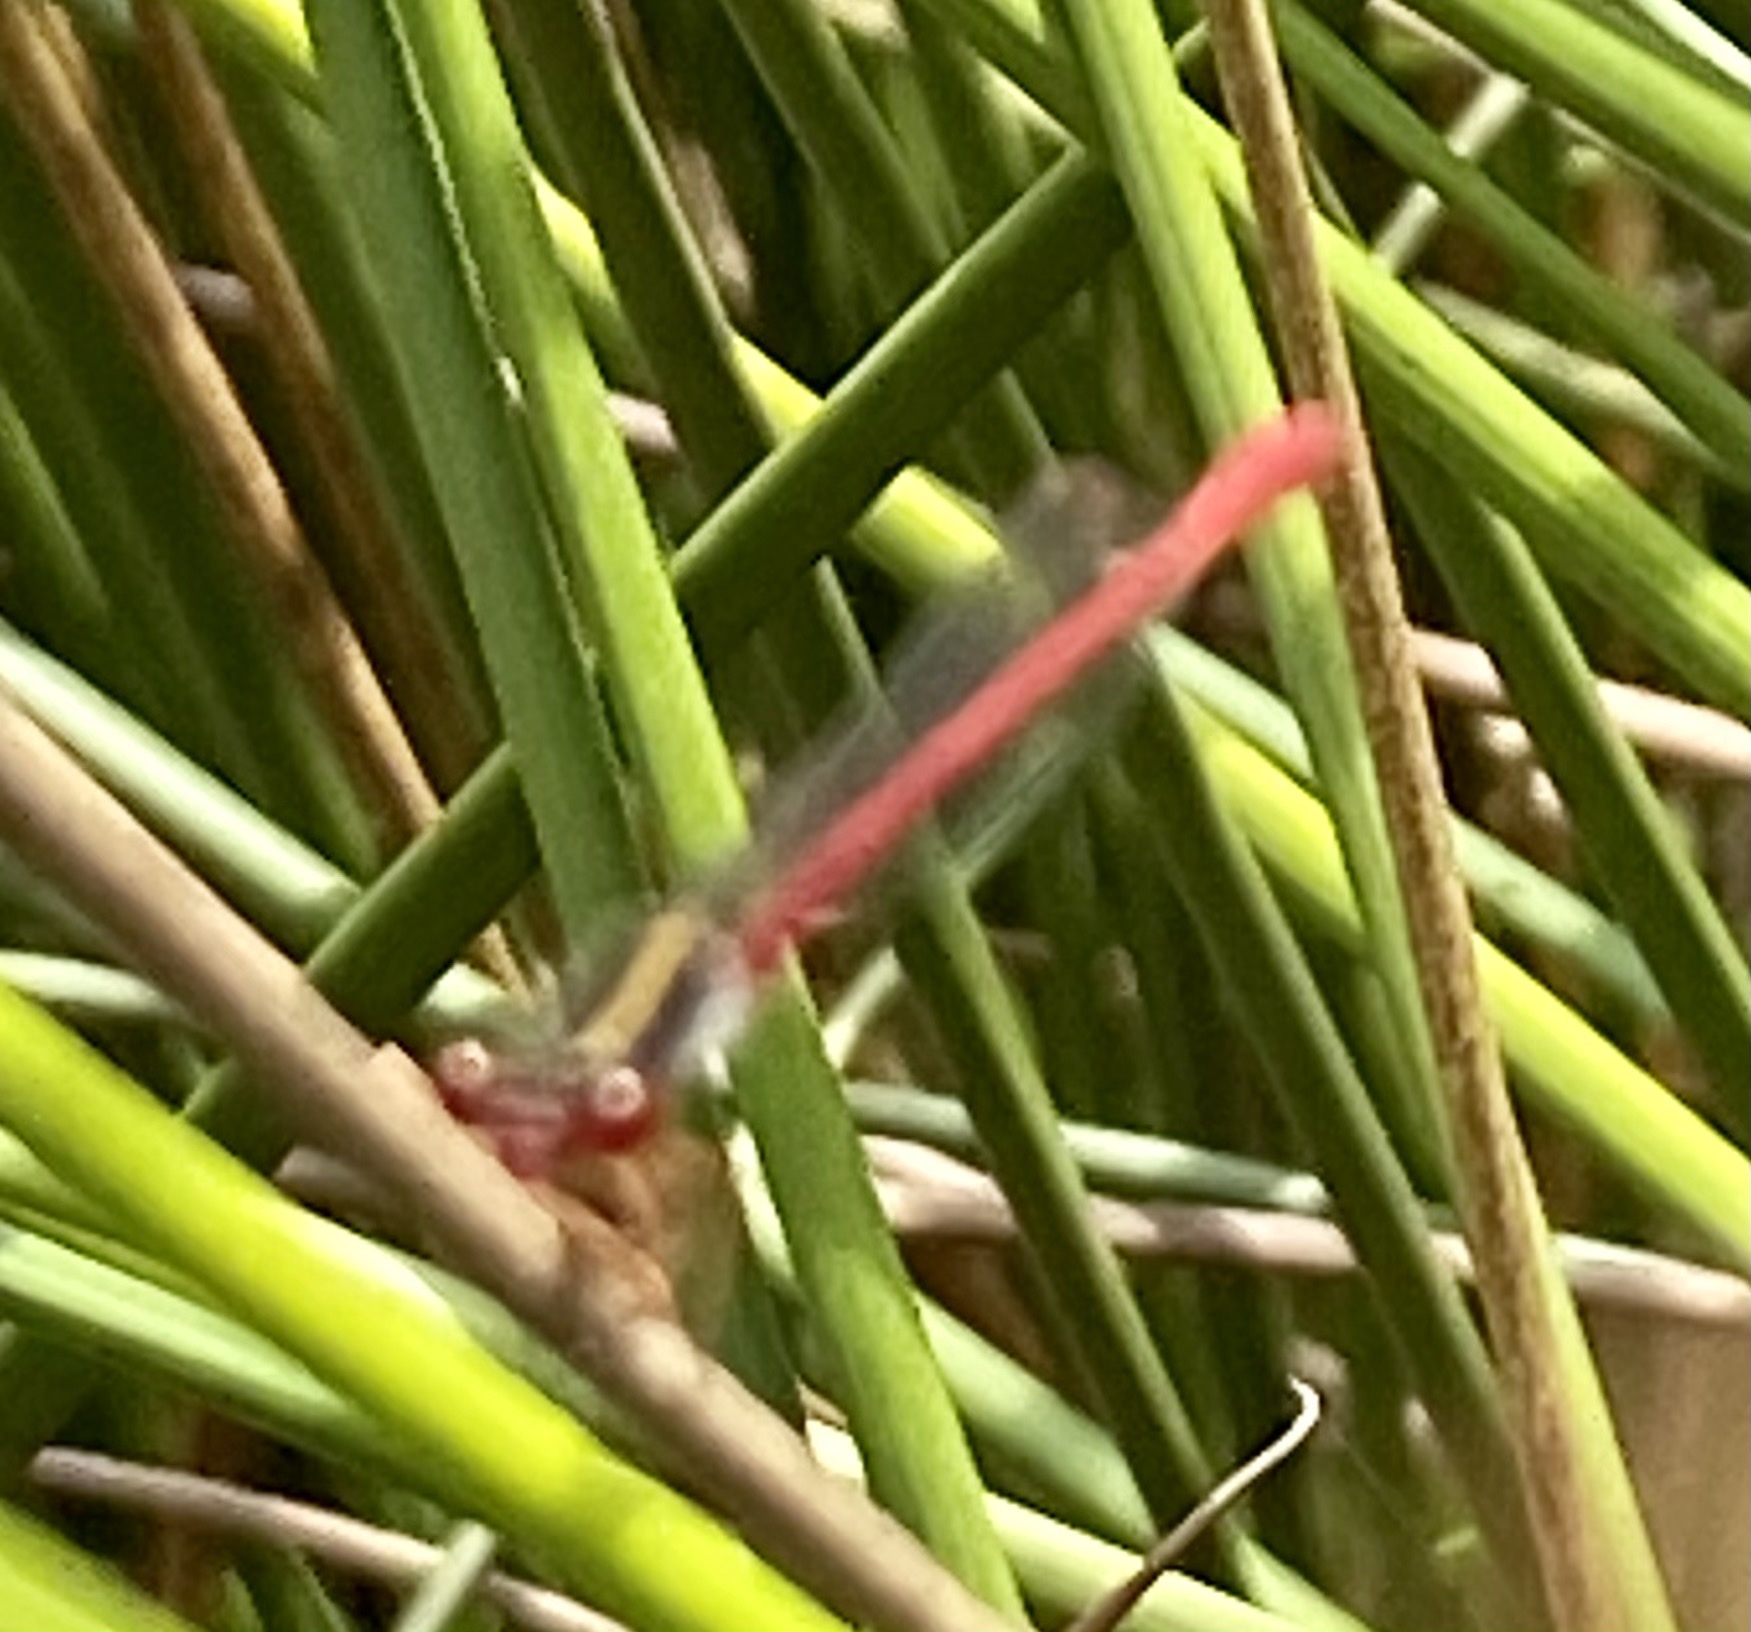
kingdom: Animalia
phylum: Arthropoda
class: Insecta
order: Odonata
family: Coenagrionidae
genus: Ceriagrion
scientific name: Ceriagrion tenellum
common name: Small red damselfly
